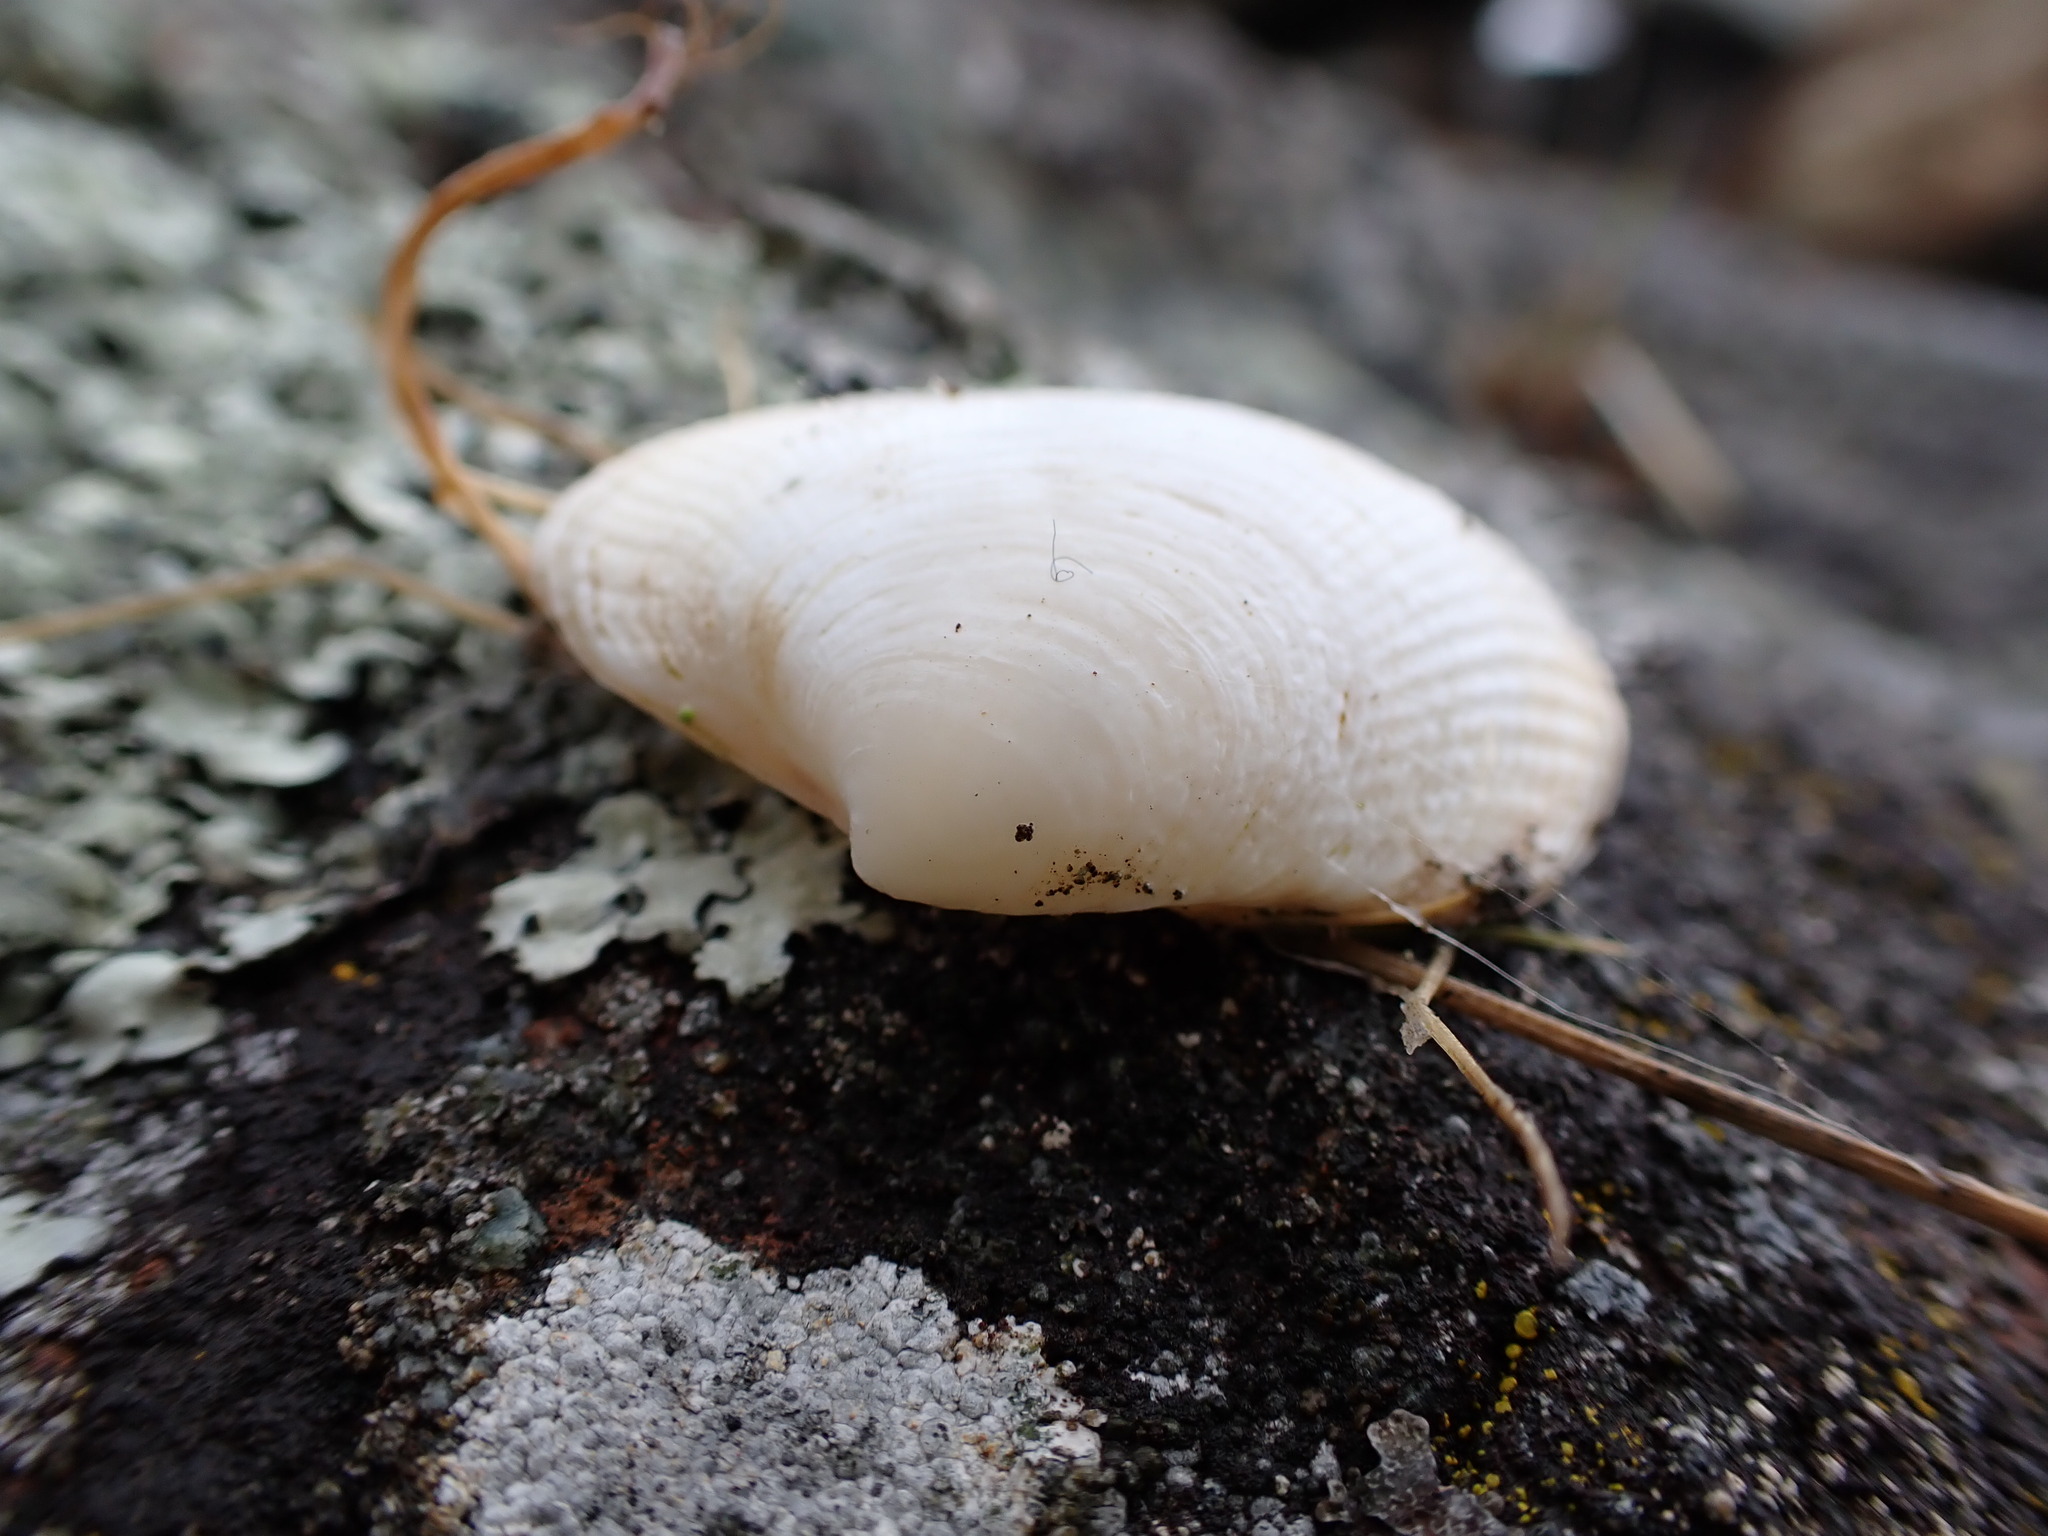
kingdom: Animalia
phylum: Mollusca
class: Bivalvia
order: Venerida
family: Veneridae
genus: Ruditapes
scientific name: Ruditapes philippinarum
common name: Manila clam
